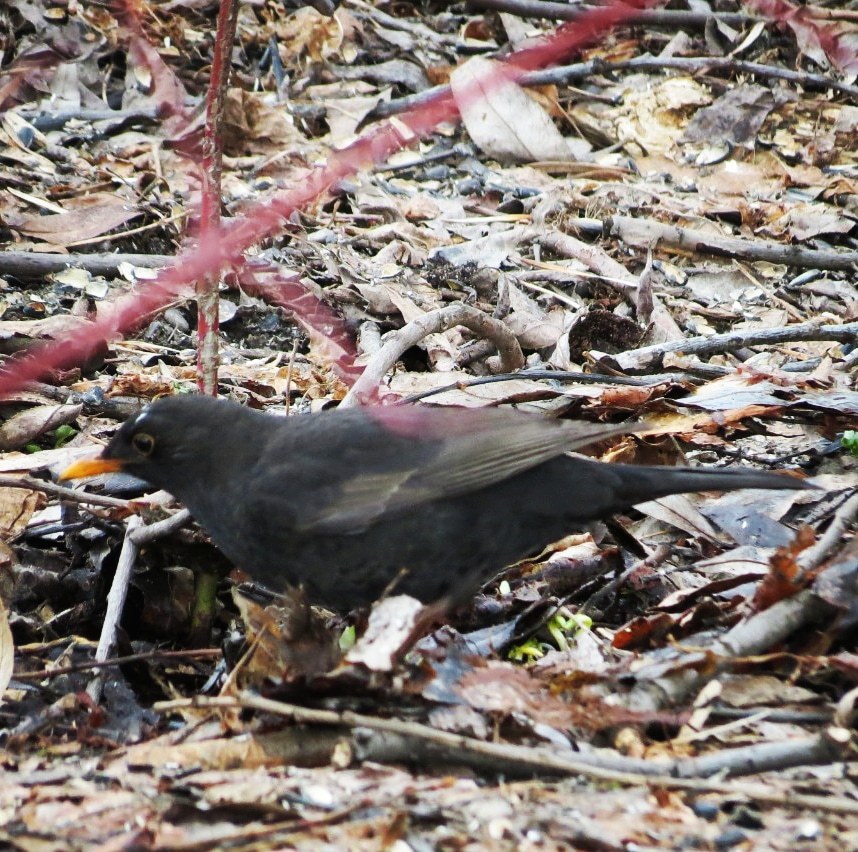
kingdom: Animalia
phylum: Chordata
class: Aves
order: Passeriformes
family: Turdidae
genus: Turdus
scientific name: Turdus merula
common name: Common blackbird
